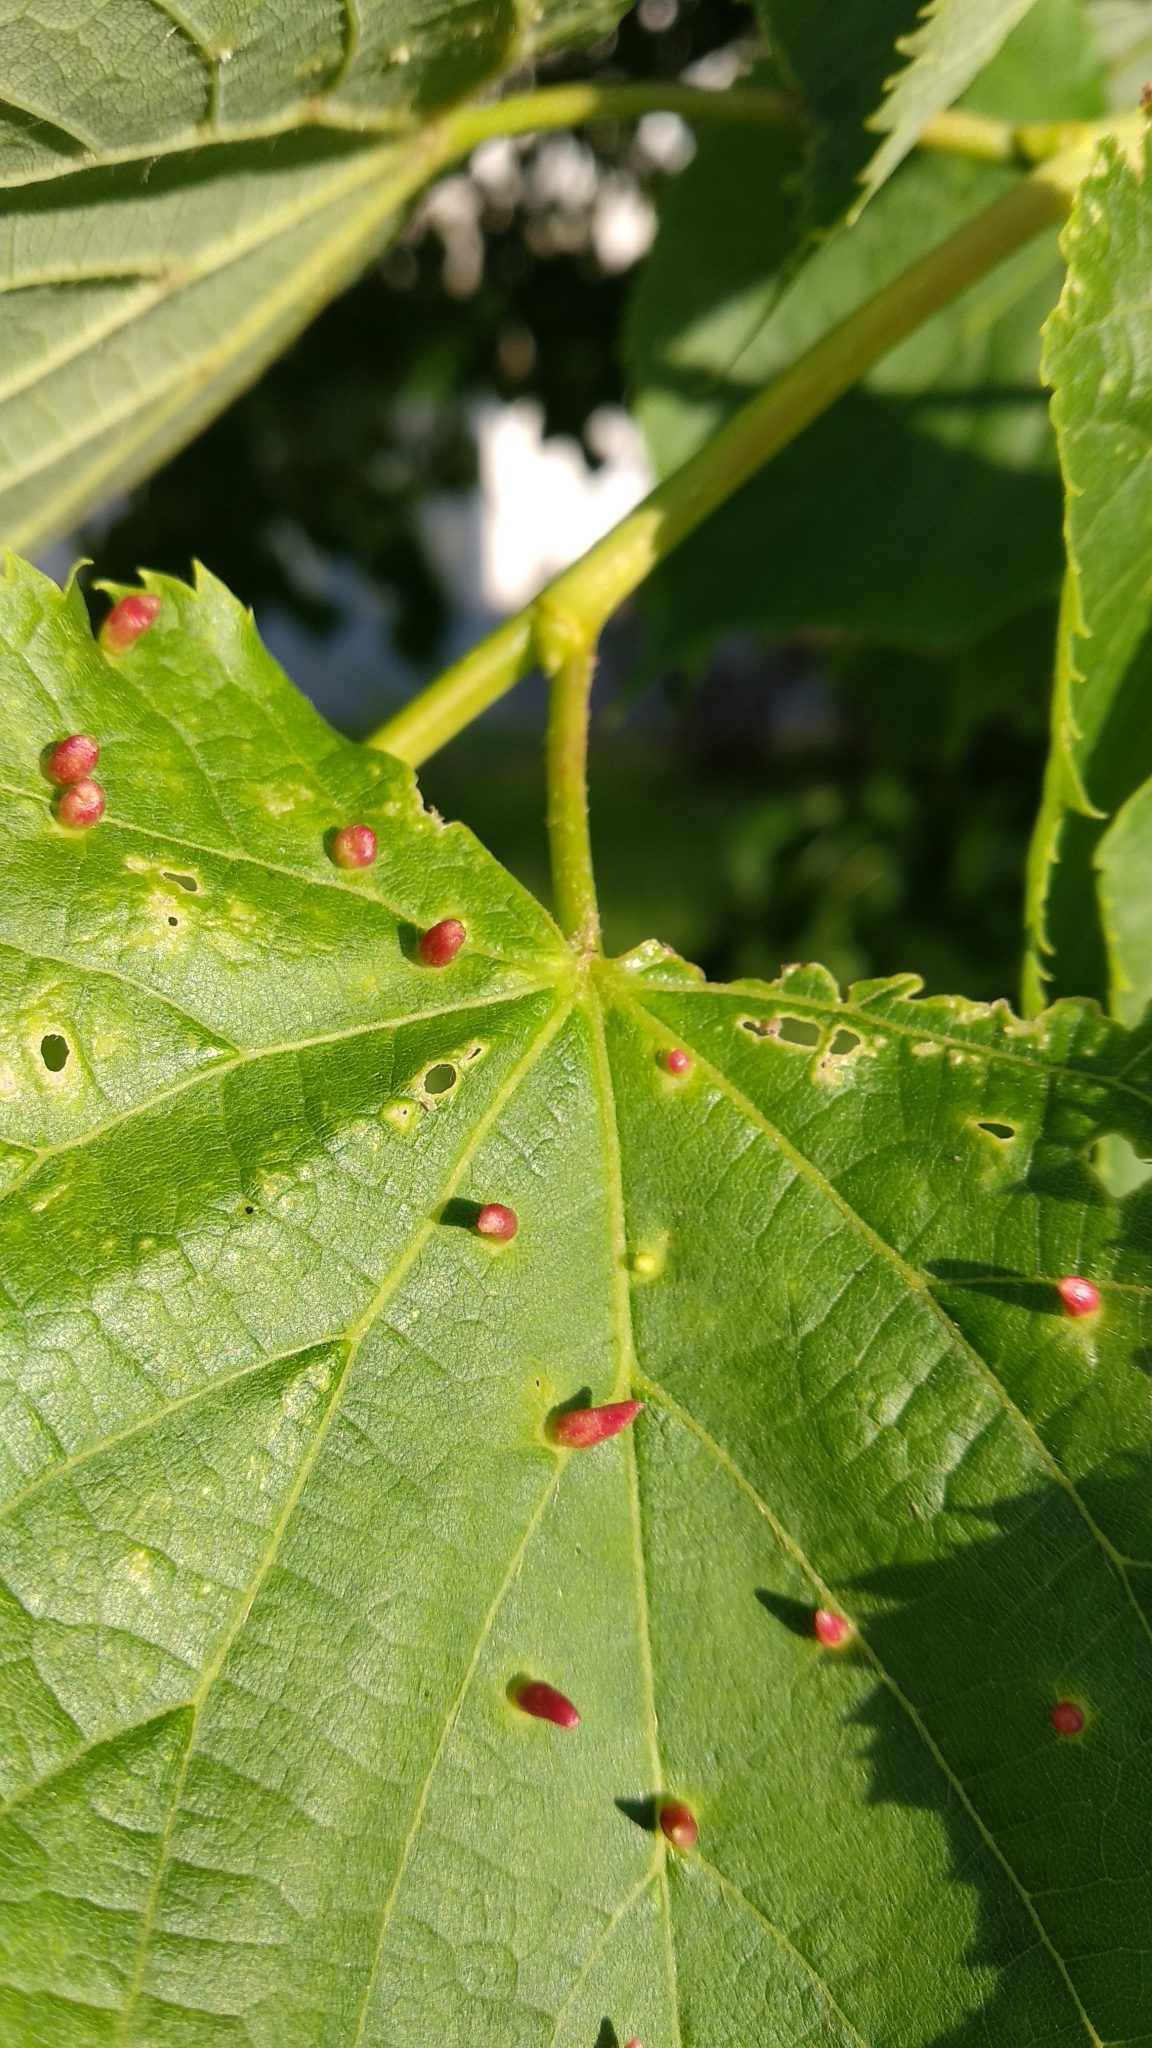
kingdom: Animalia
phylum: Arthropoda
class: Arachnida
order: Trombidiformes
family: Eriophyidae
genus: Eriophyes
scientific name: Eriophyes tiliae
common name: Red nail gall mite
